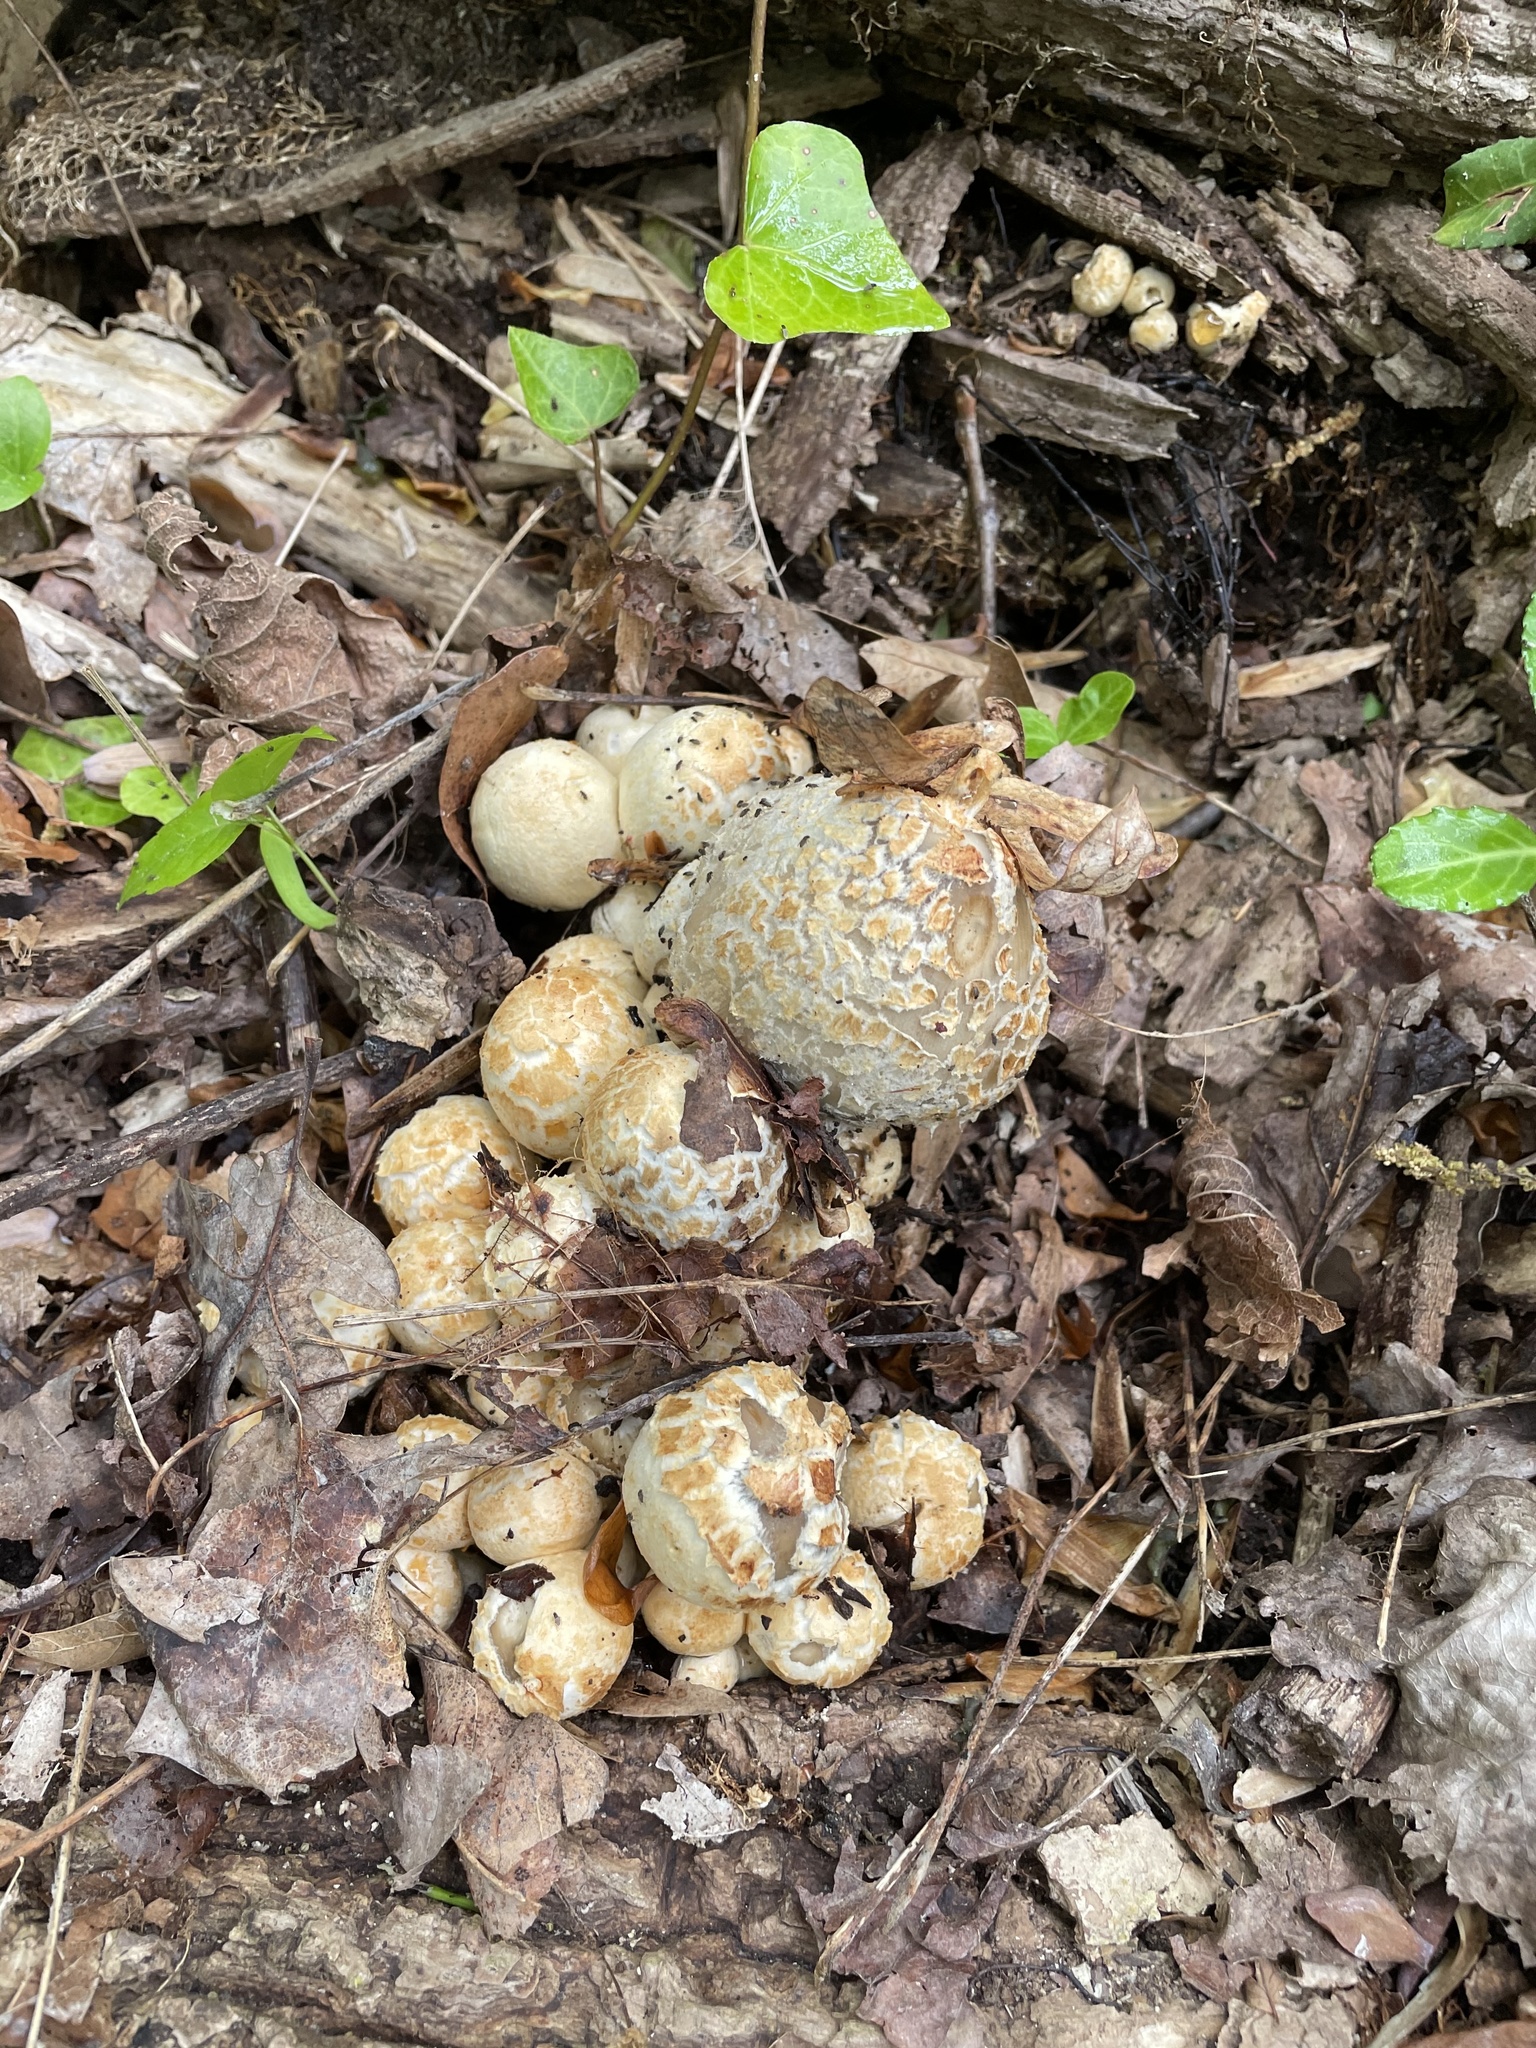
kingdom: Fungi
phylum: Basidiomycota
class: Agaricomycetes
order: Agaricales
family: Psathyrellaceae
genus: Coprinopsis
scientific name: Coprinopsis variegata
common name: Scaly ink cap
